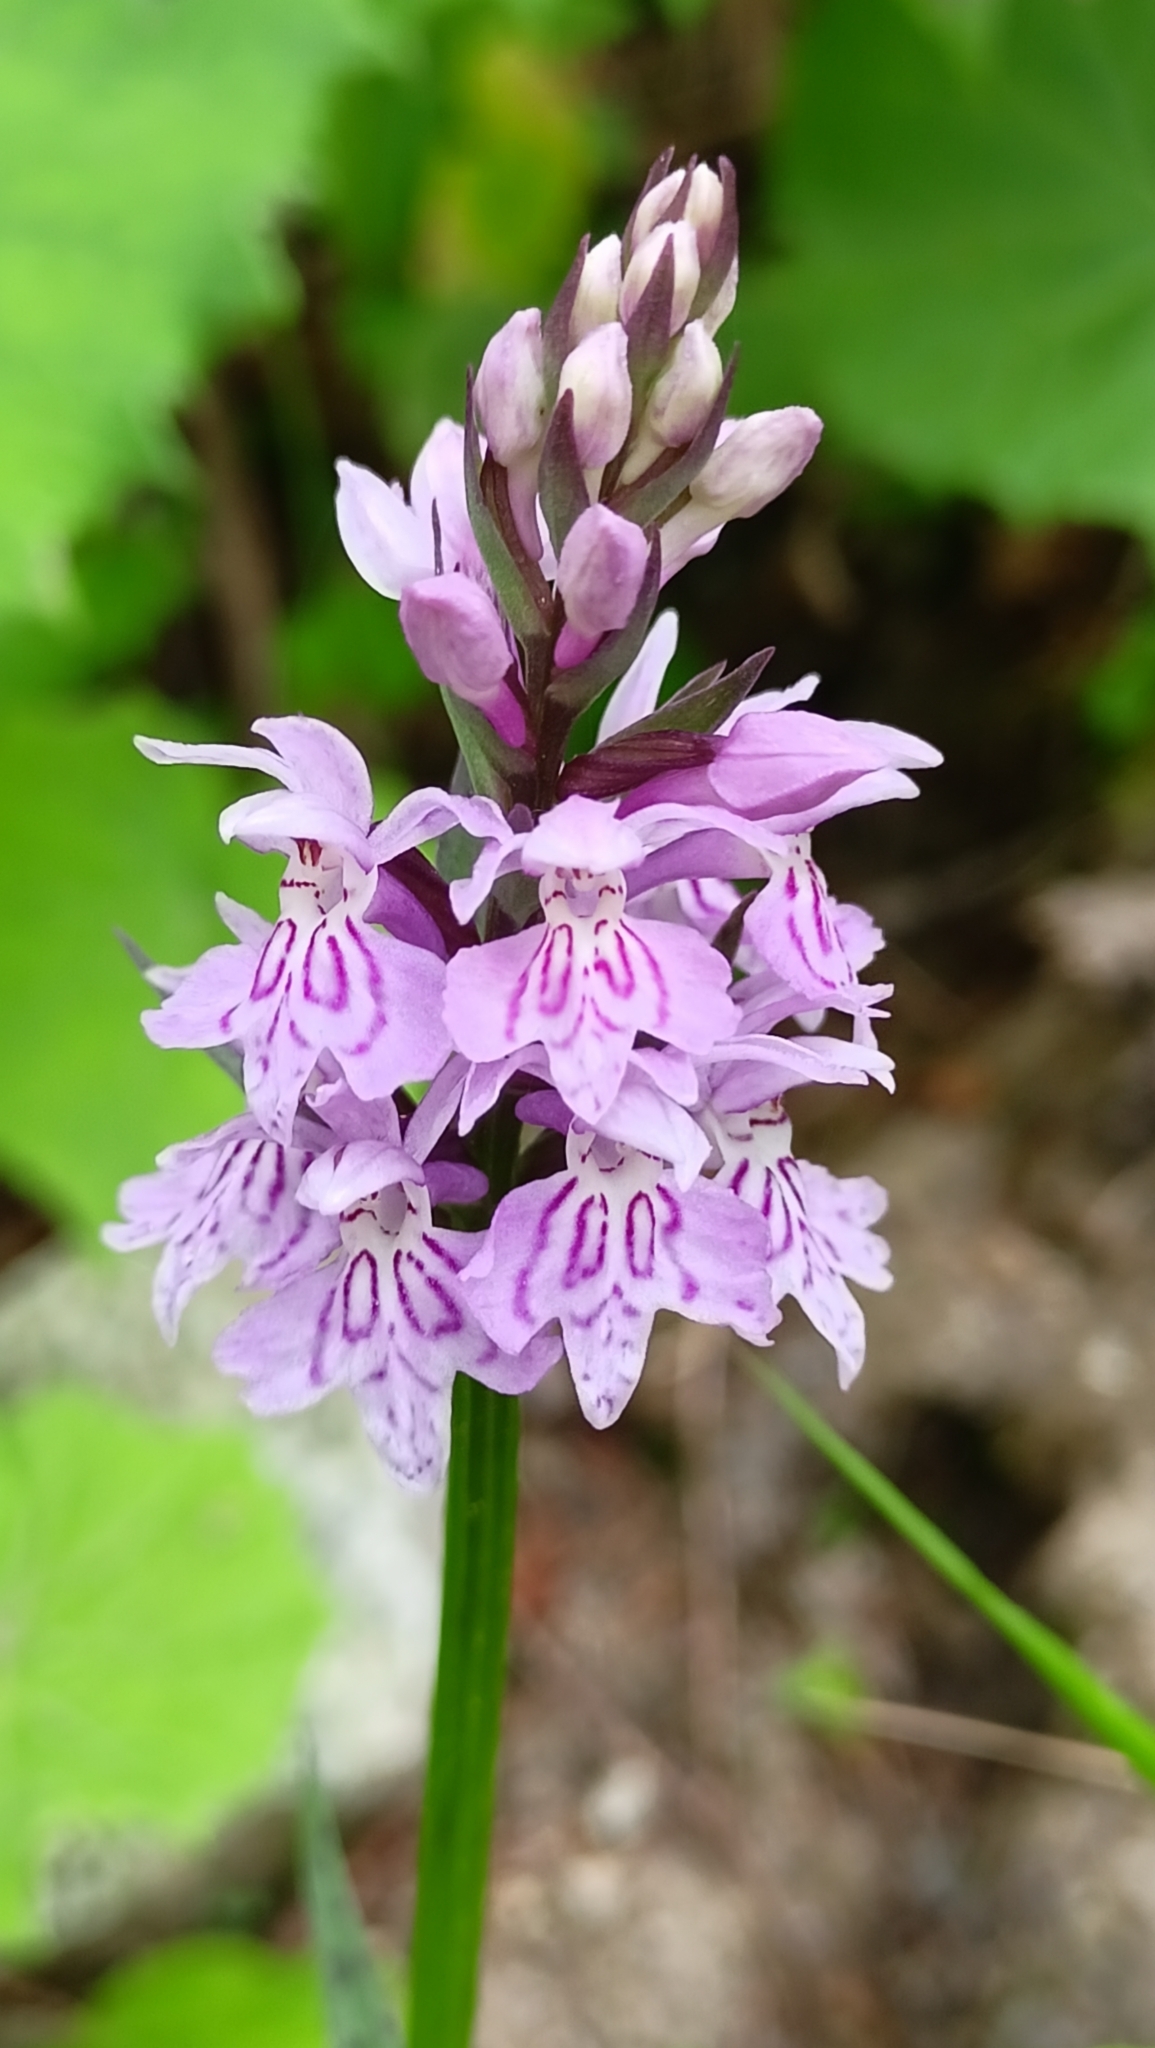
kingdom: Plantae
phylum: Tracheophyta
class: Liliopsida
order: Asparagales
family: Orchidaceae
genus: Dactylorhiza
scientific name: Dactylorhiza maculata
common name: Heath spotted-orchid
